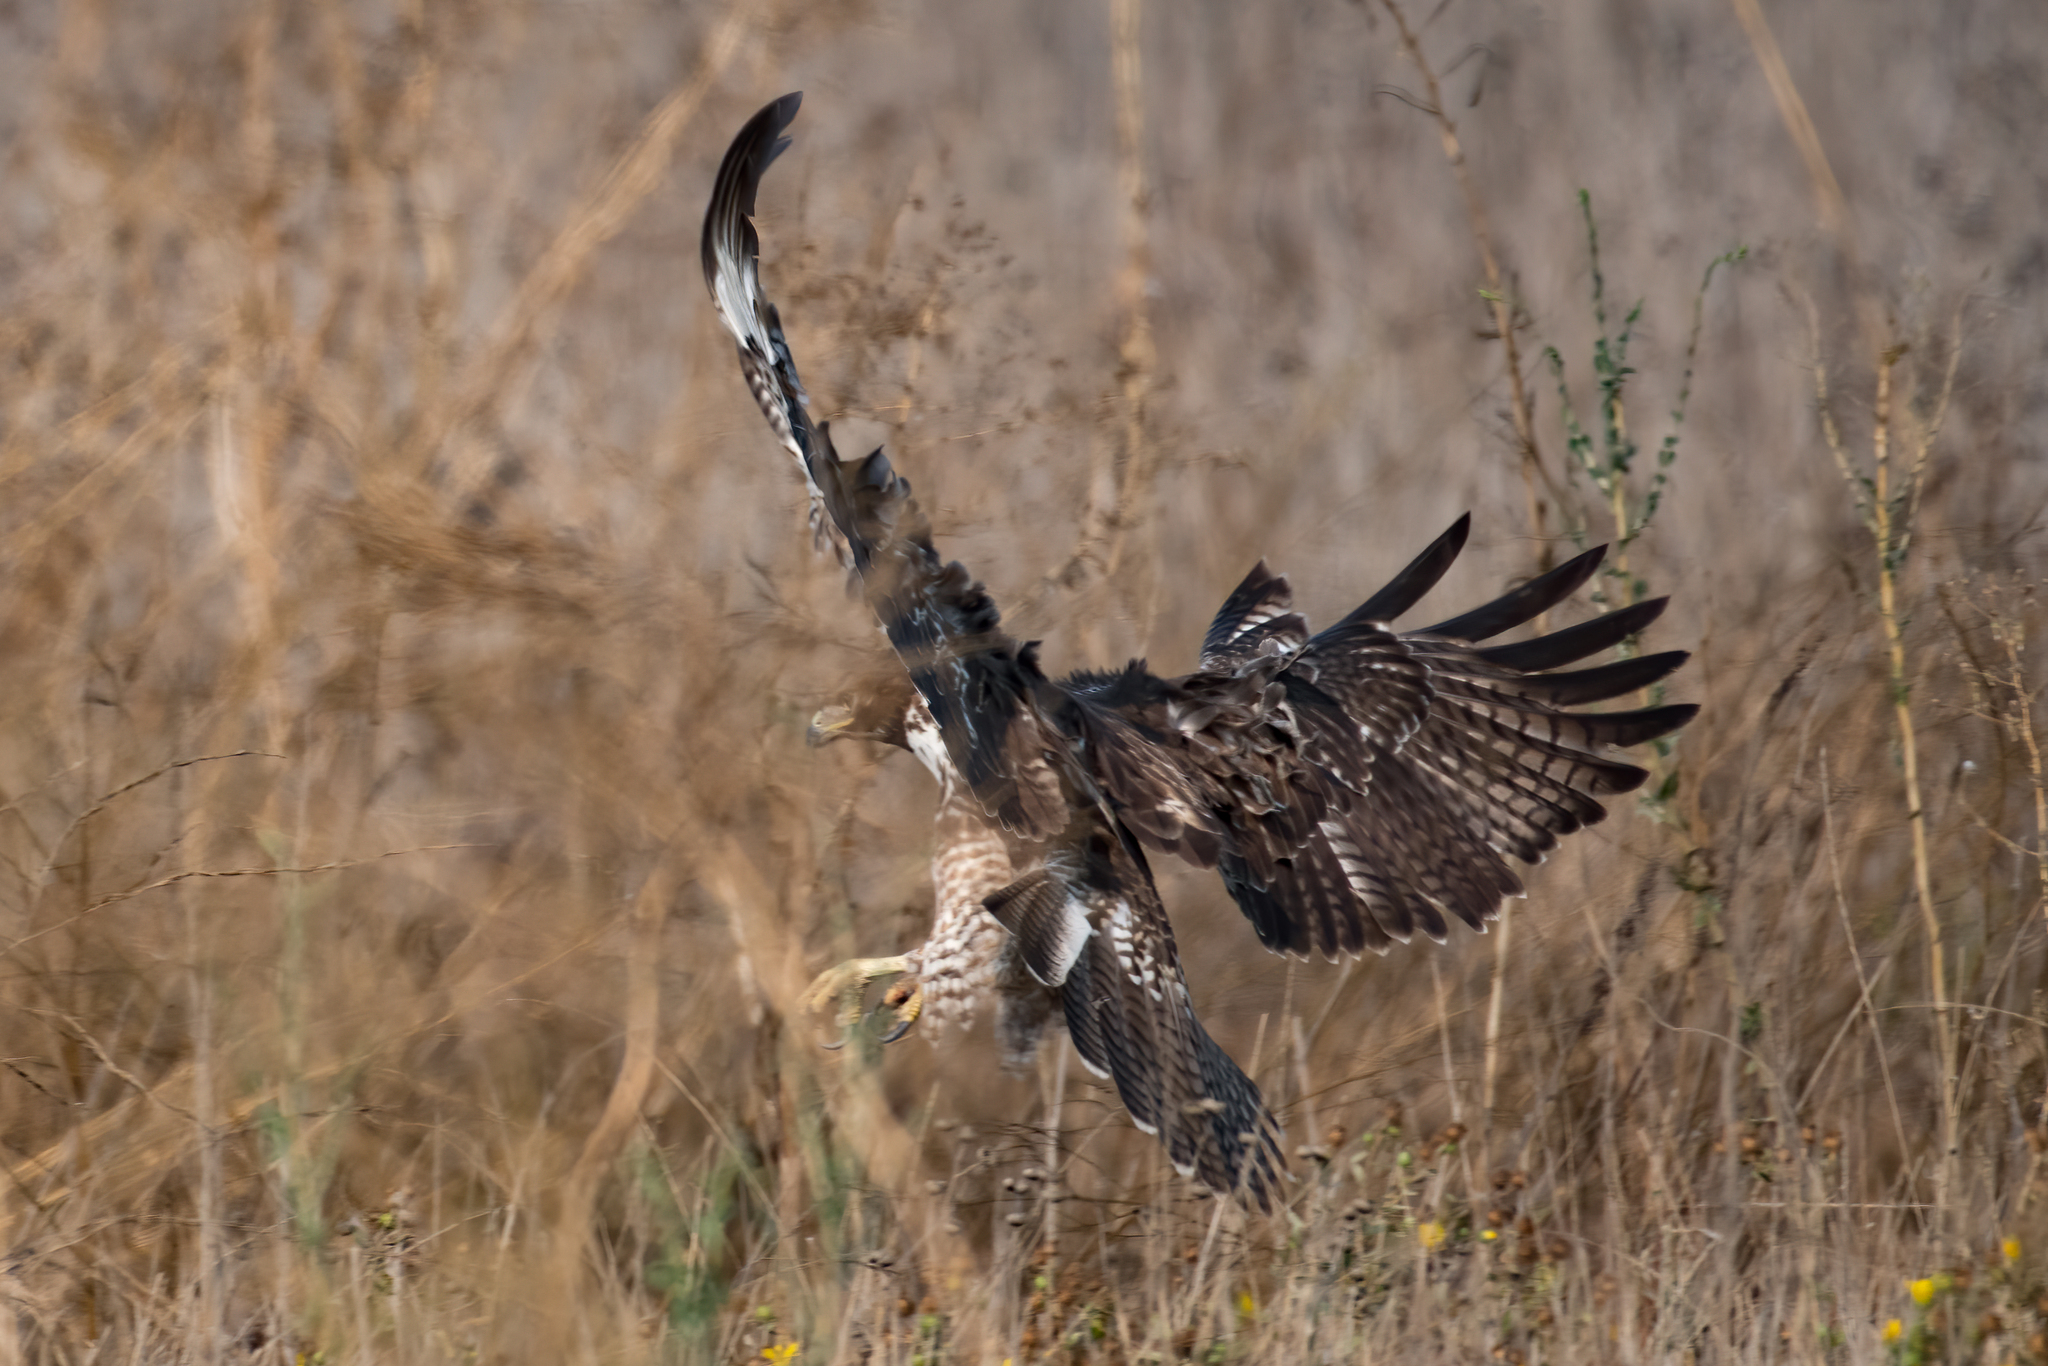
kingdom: Animalia
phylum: Chordata
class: Aves
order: Accipitriformes
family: Accipitridae
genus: Buteo
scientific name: Buteo jamaicensis
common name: Red-tailed hawk
